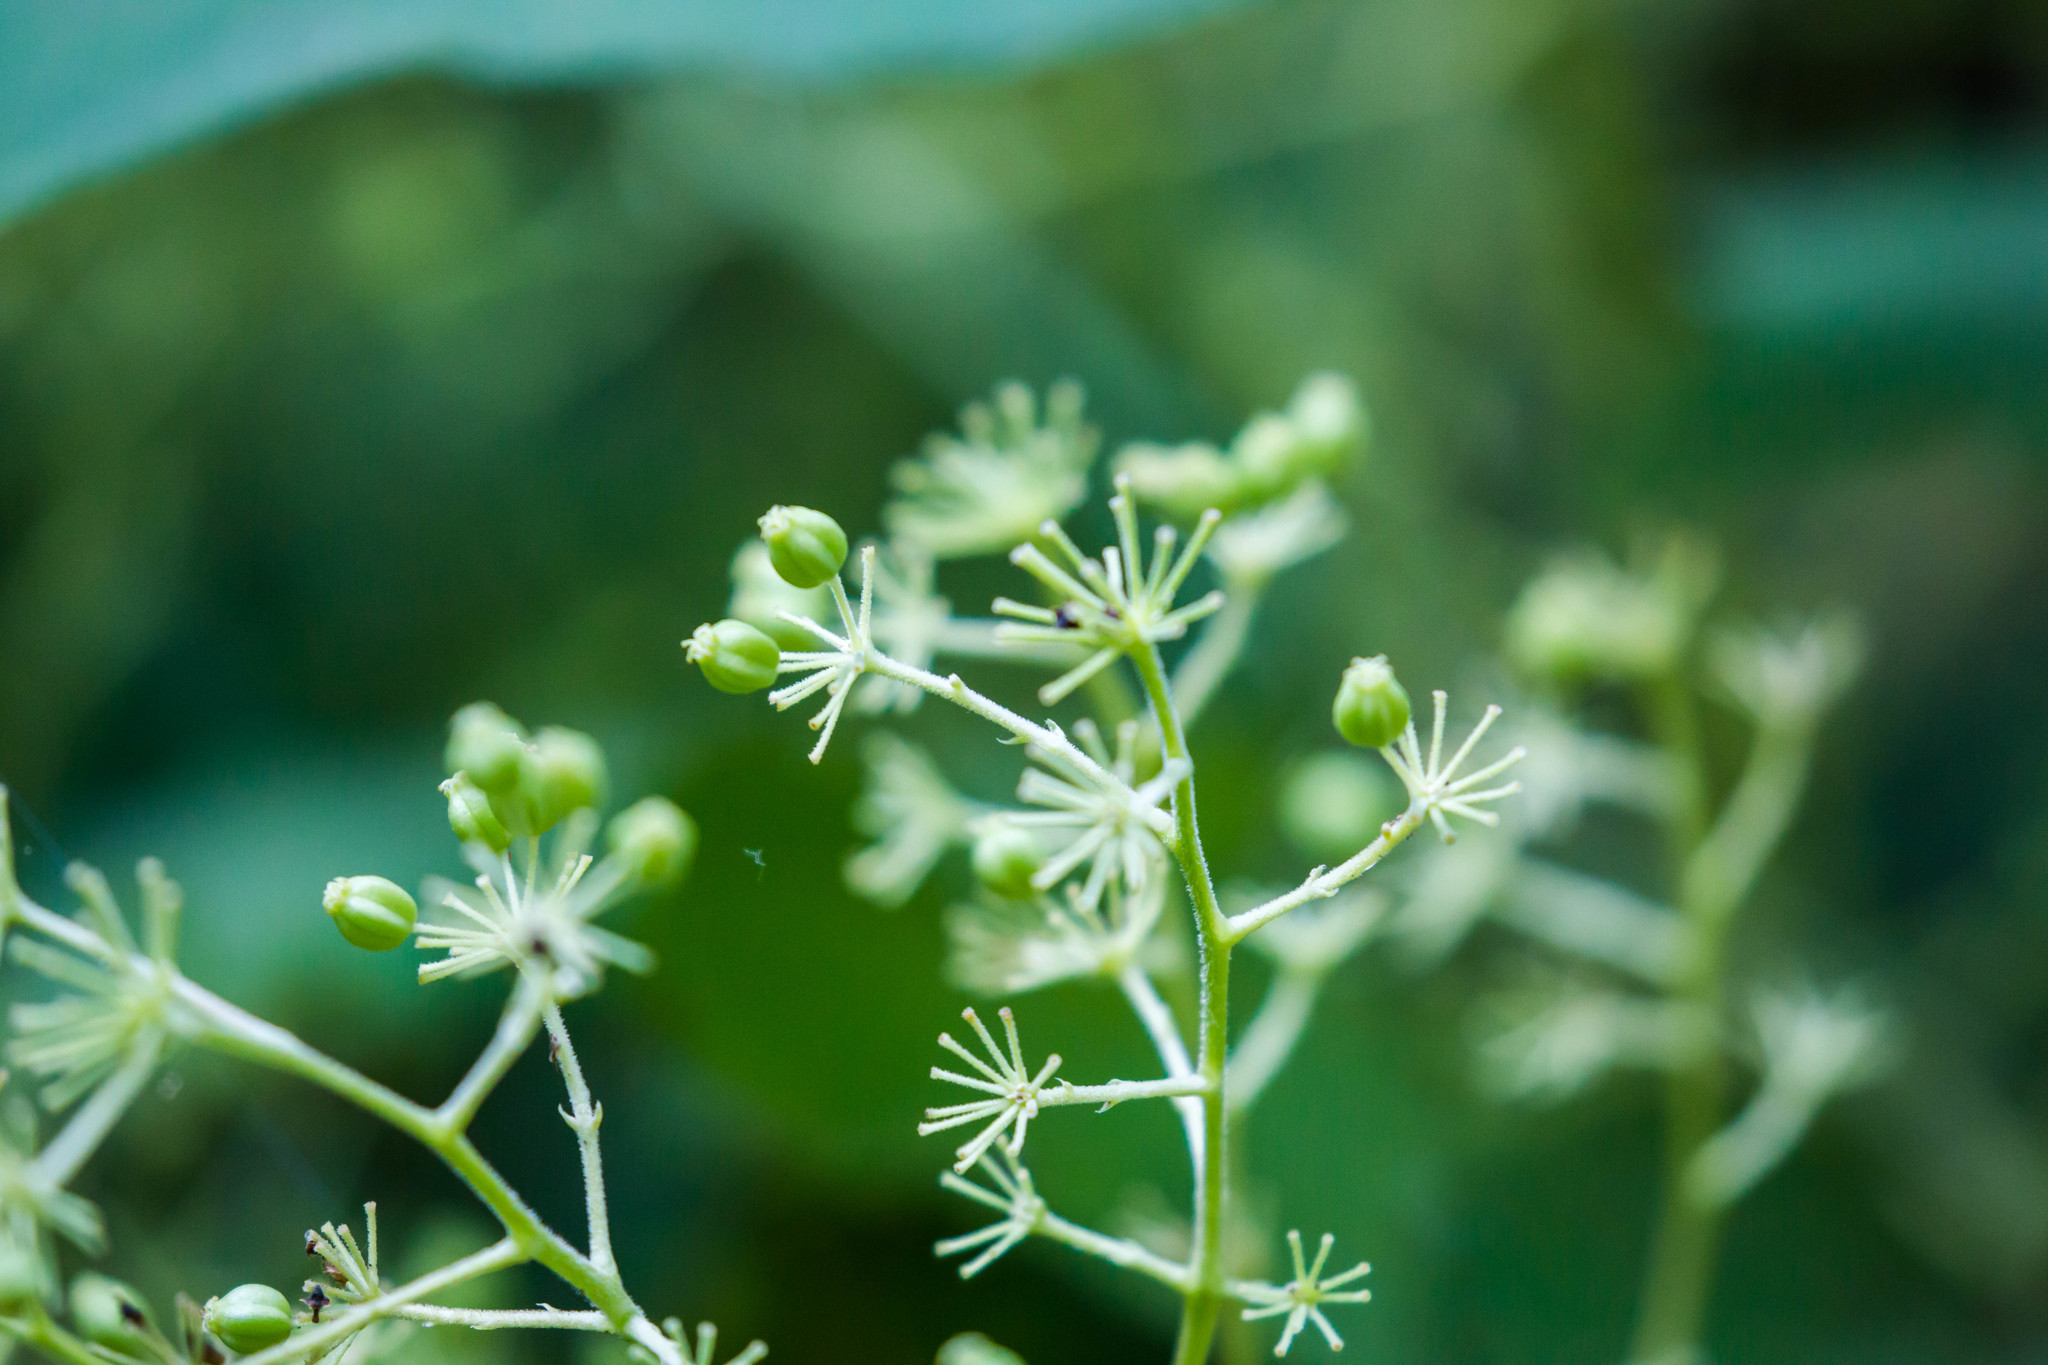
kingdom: Plantae
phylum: Tracheophyta
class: Magnoliopsida
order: Apiales
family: Araliaceae
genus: Aralia
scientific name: Aralia spinosa
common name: Hercules'-club
